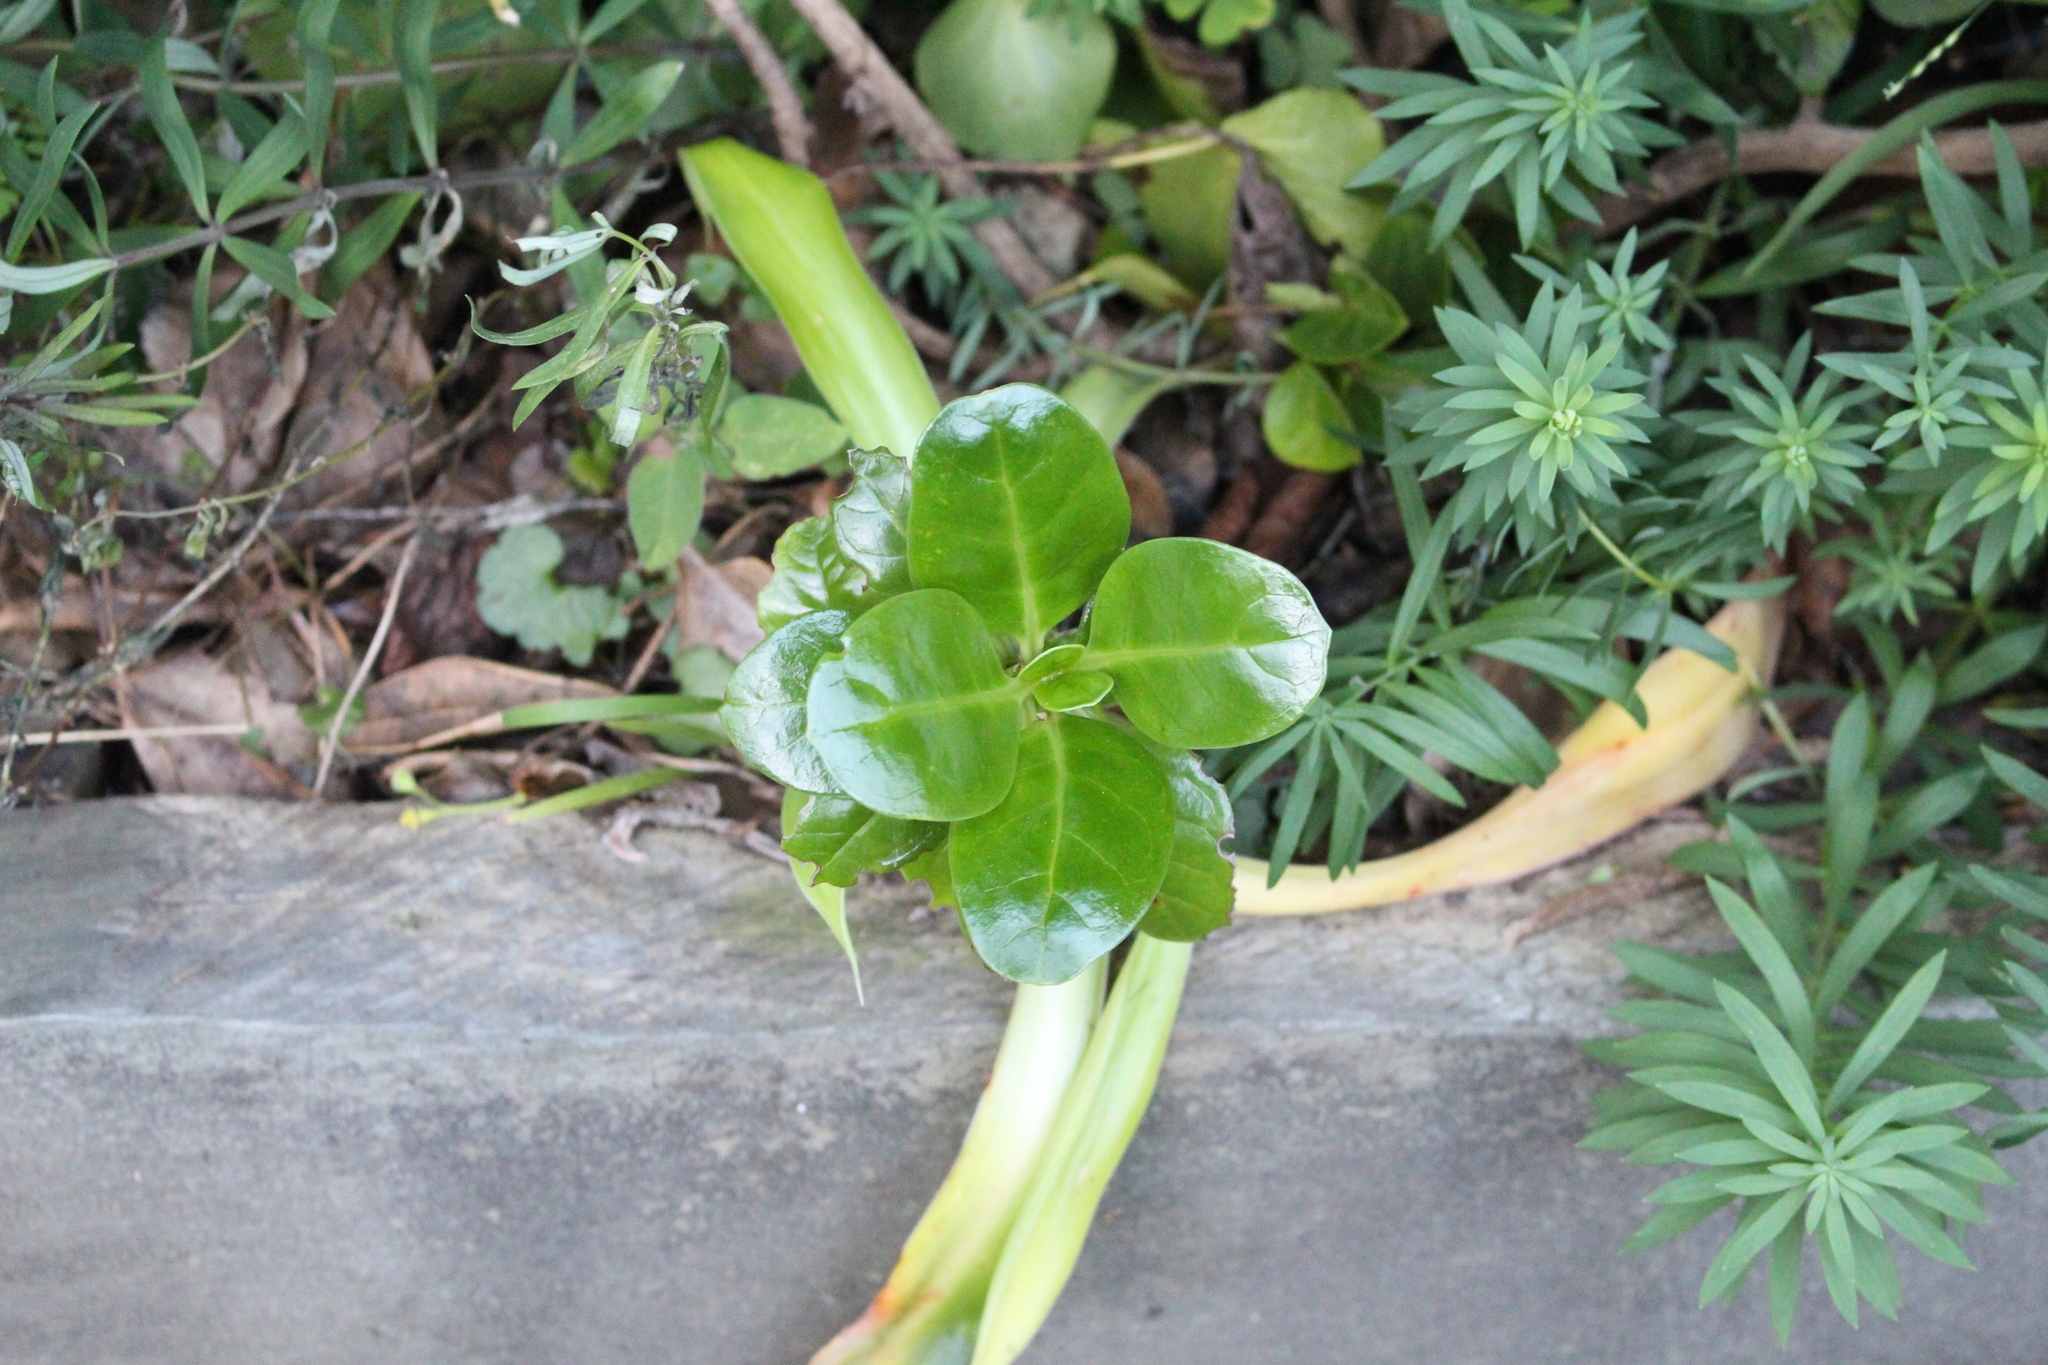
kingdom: Plantae
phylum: Tracheophyta
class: Magnoliopsida
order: Gentianales
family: Rubiaceae
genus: Coprosma
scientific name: Coprosma repens
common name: Tree bedstraw
